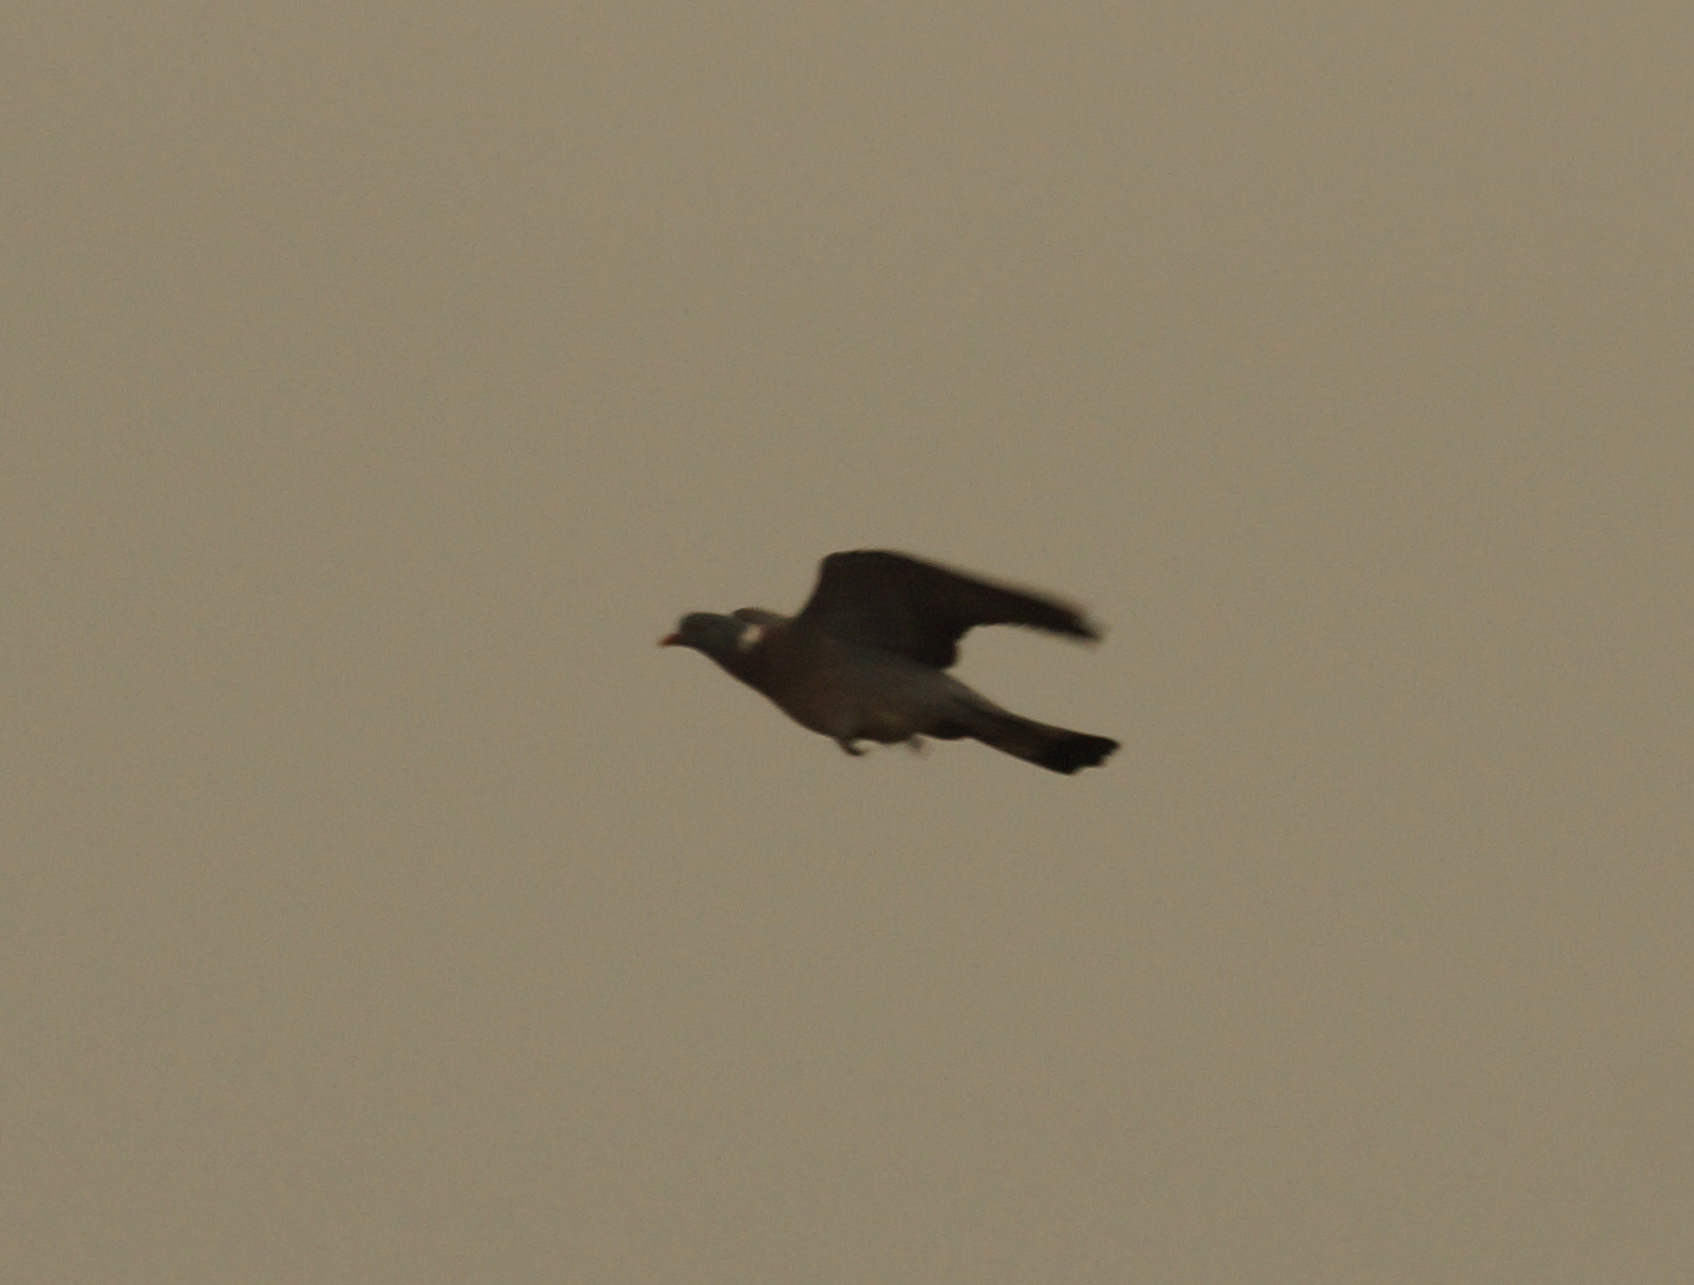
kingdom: Animalia
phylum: Chordata
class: Aves
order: Columbiformes
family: Columbidae
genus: Columba
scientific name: Columba palumbus
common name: Common wood pigeon
